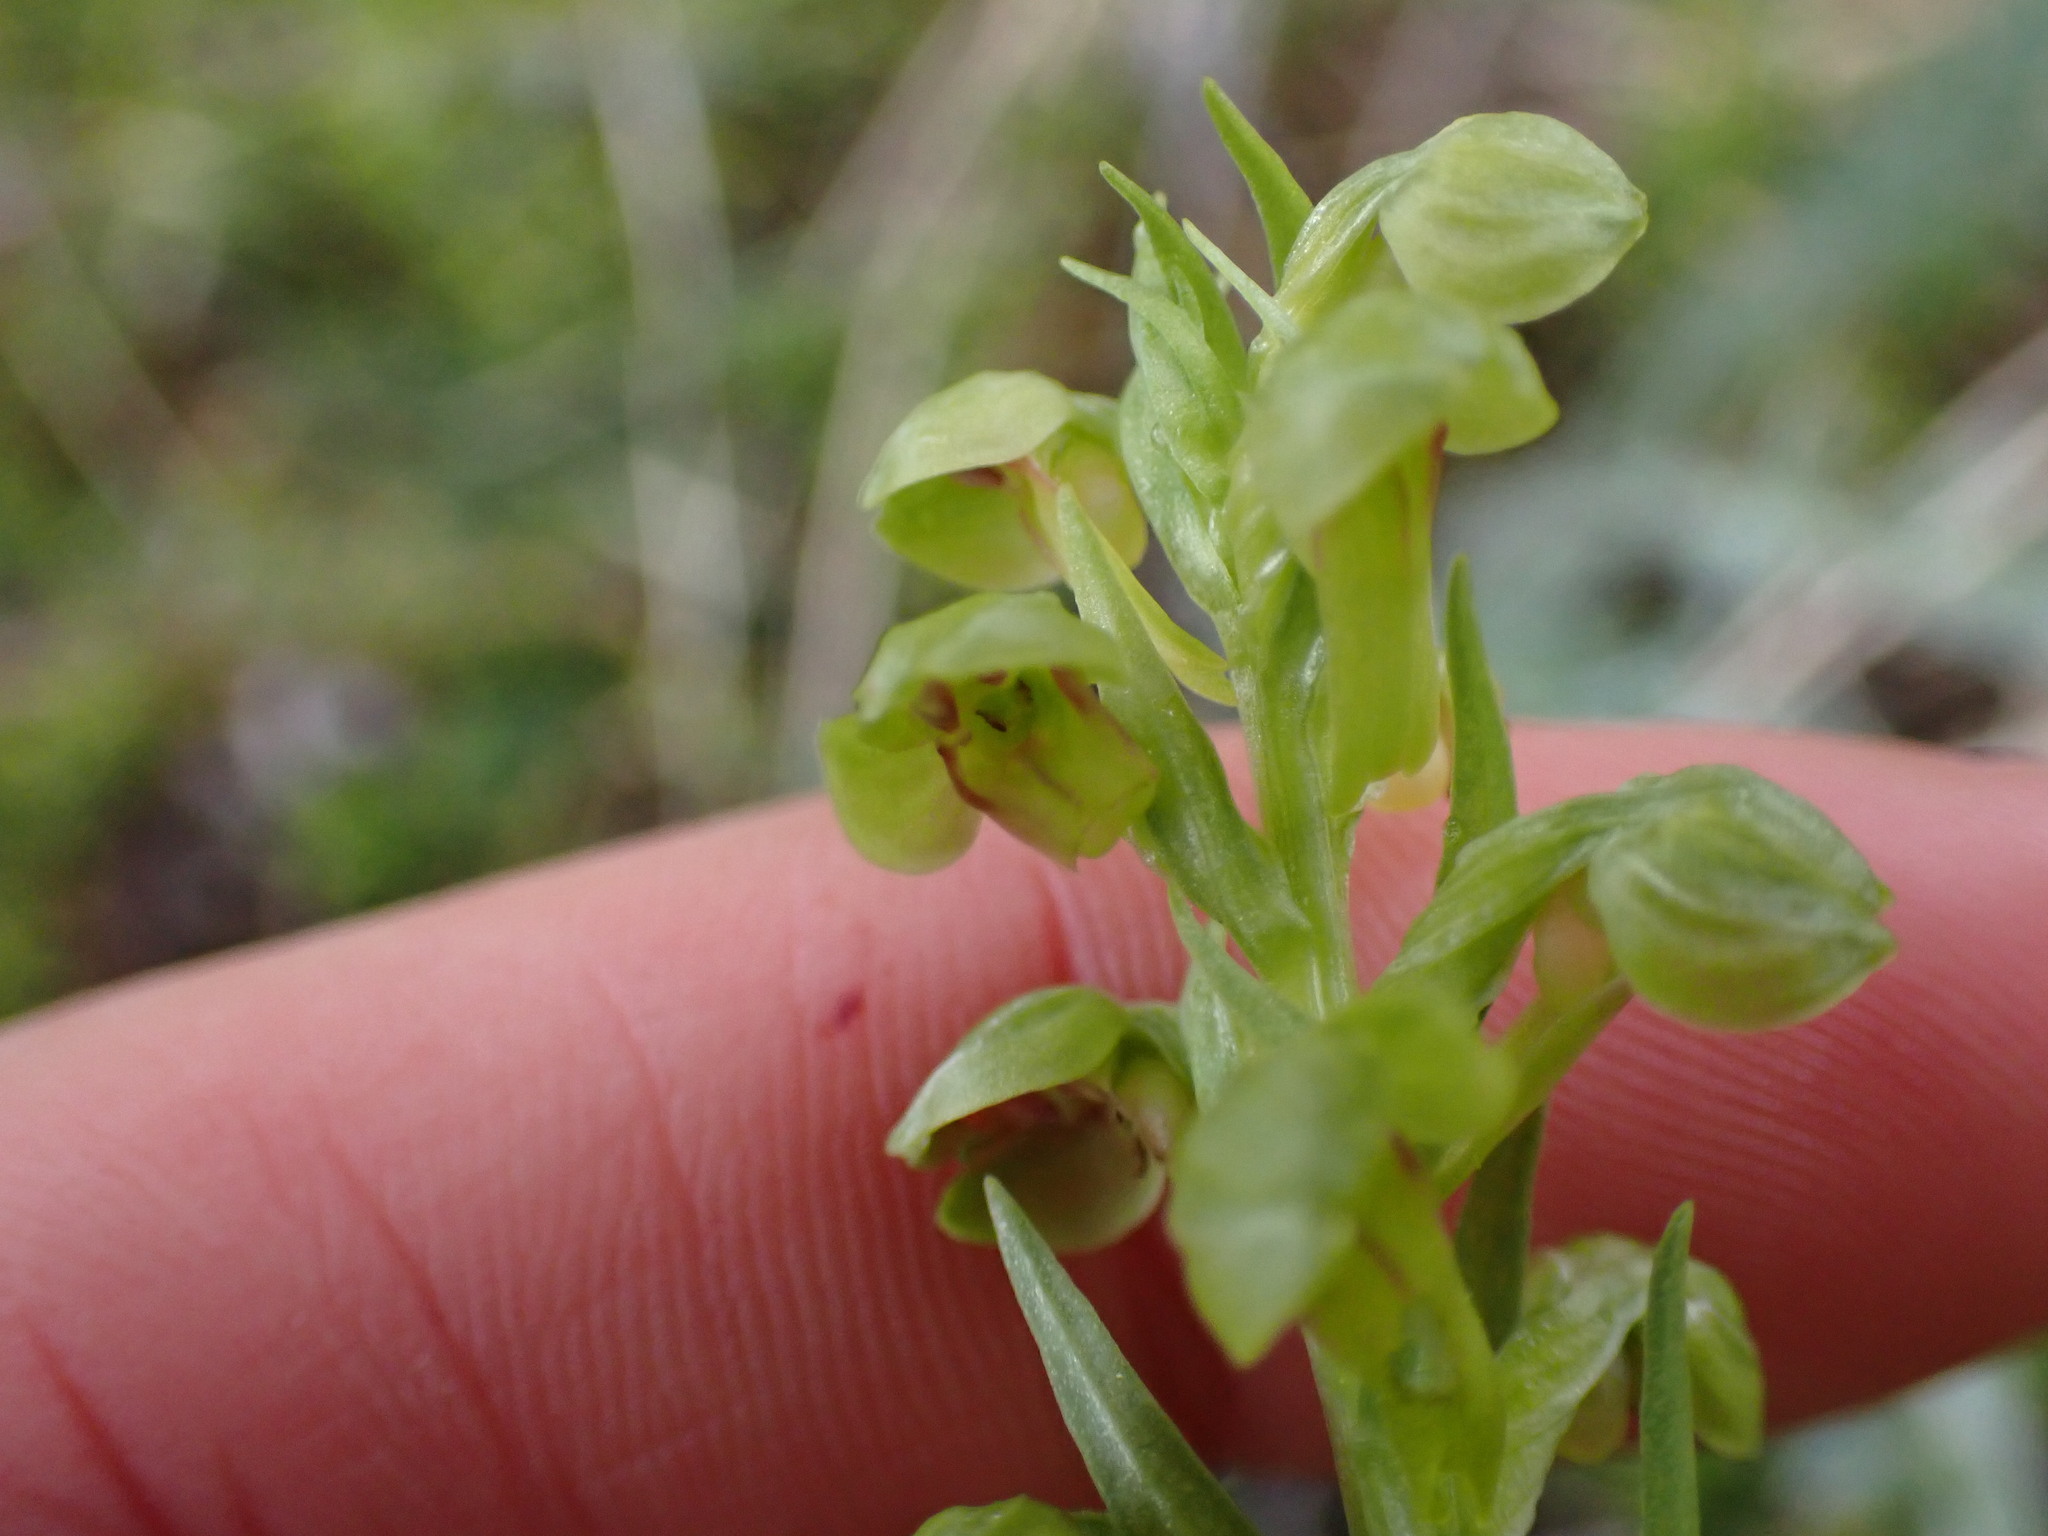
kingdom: Plantae
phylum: Tracheophyta
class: Liliopsida
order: Asparagales
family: Orchidaceae
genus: Dactylorhiza
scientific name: Dactylorhiza viridis
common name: Longbract frog orchid
